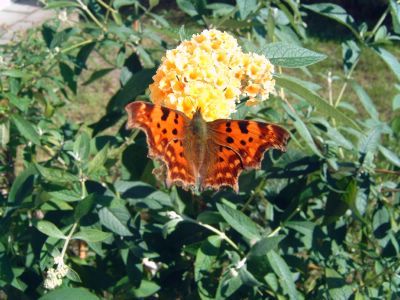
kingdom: Animalia
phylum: Arthropoda
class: Insecta
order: Lepidoptera
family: Nymphalidae
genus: Polygonia
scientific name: Polygonia c-album
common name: Comma
